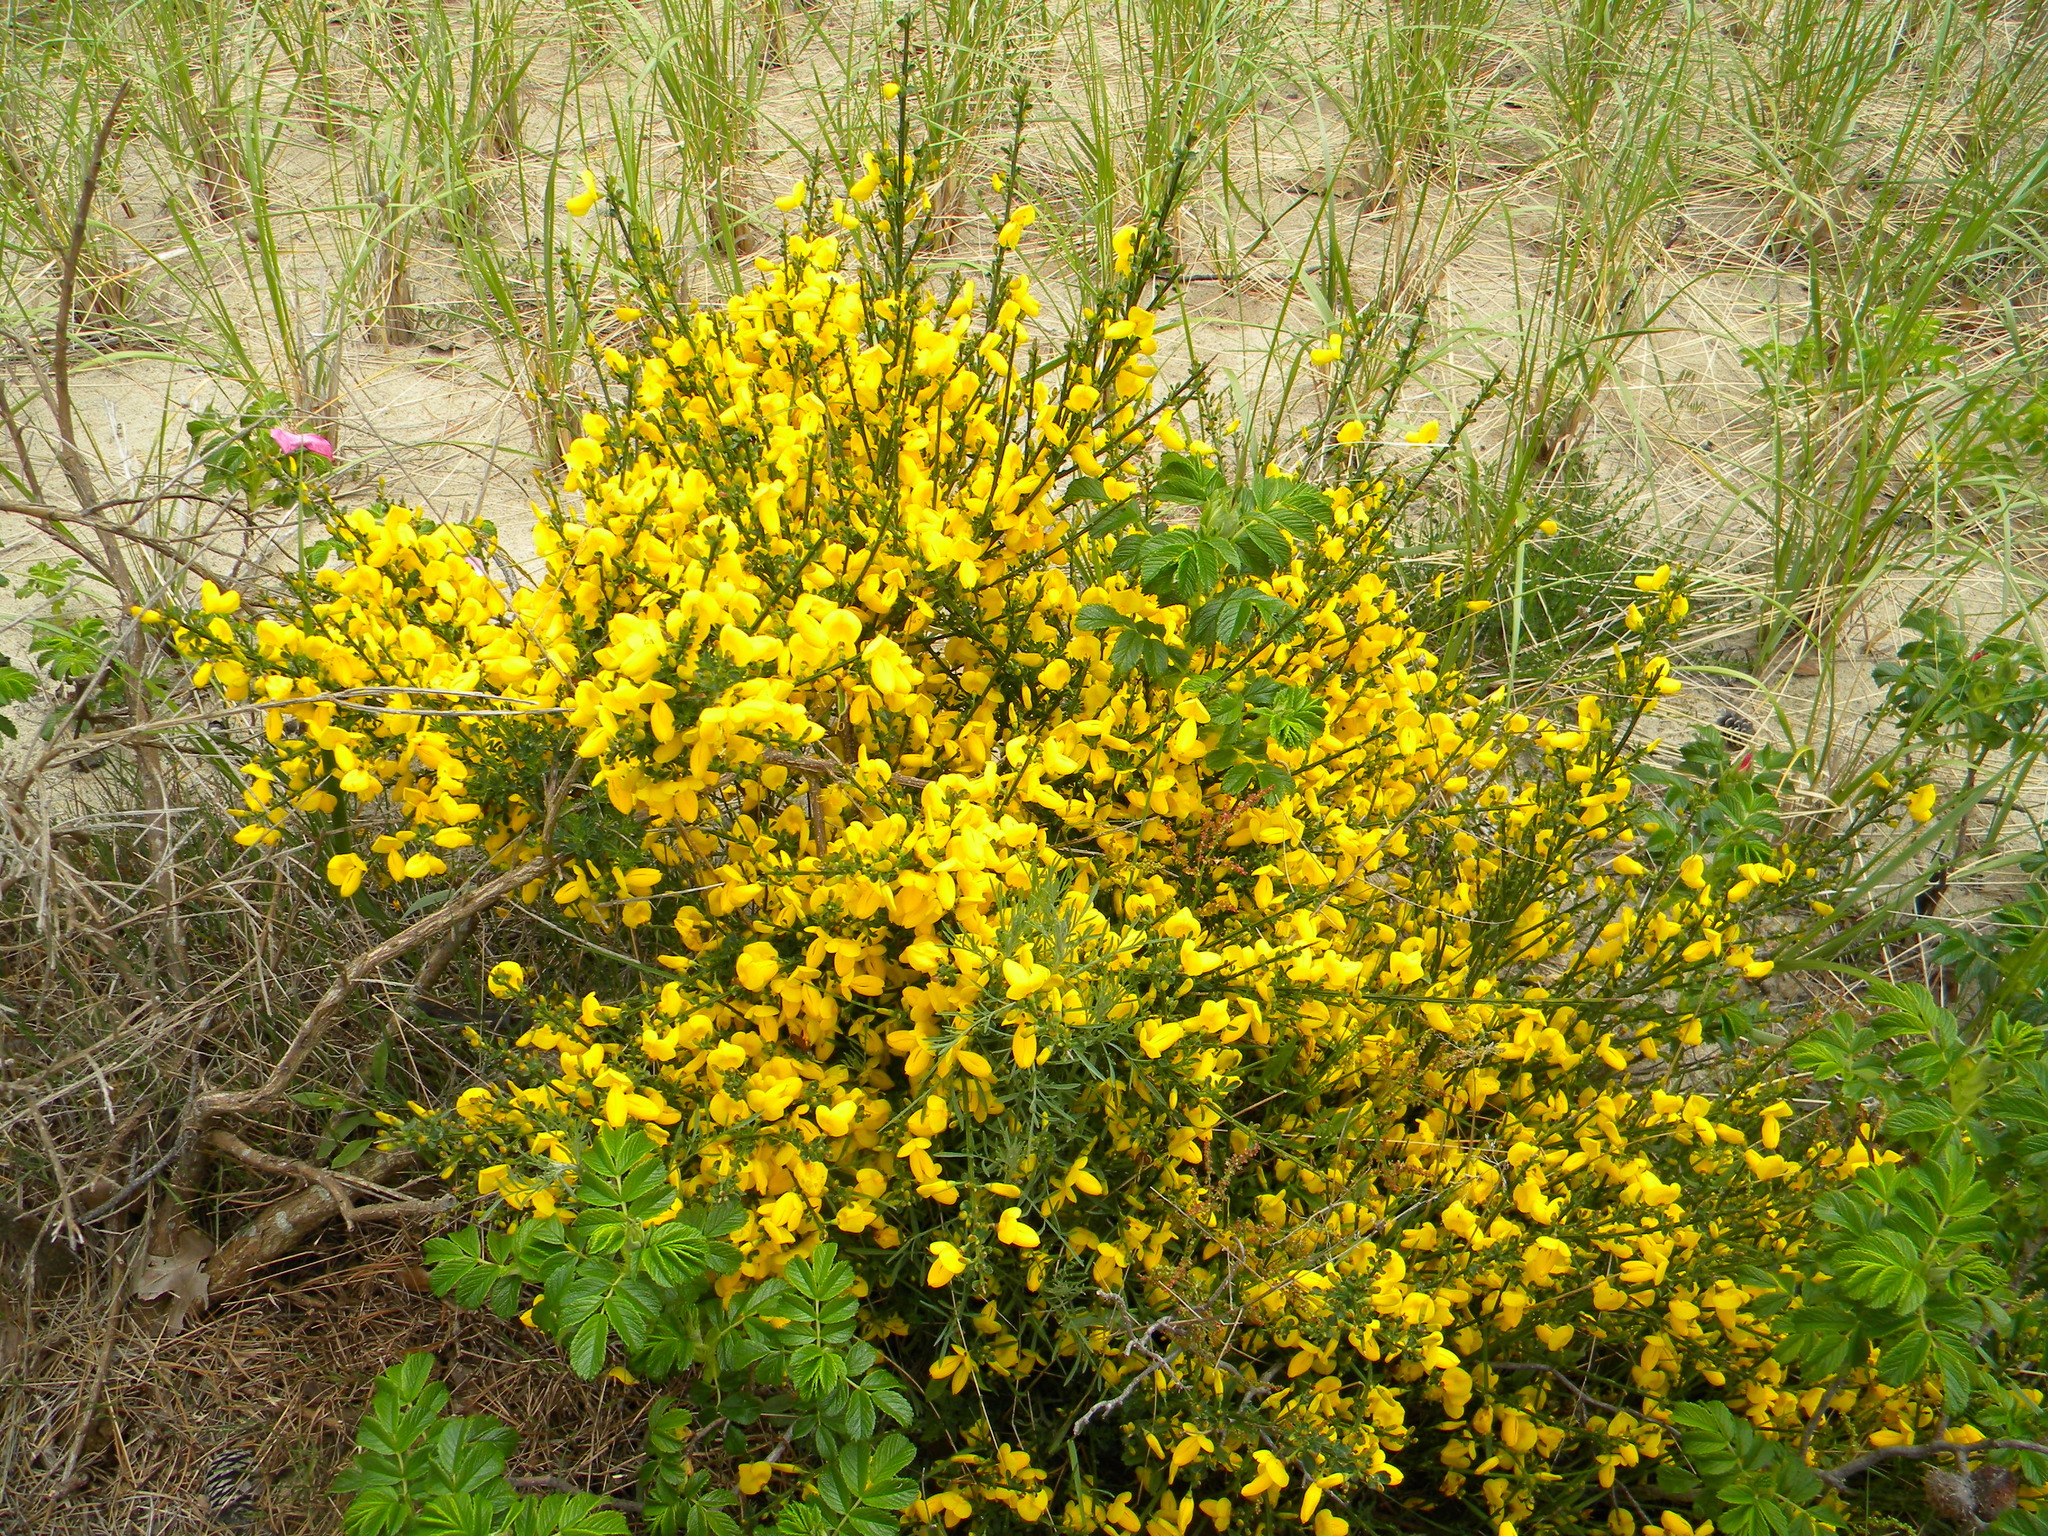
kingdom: Plantae
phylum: Tracheophyta
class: Magnoliopsida
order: Fabales
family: Fabaceae
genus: Cytisus
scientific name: Cytisus scoparius
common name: Scotch broom
